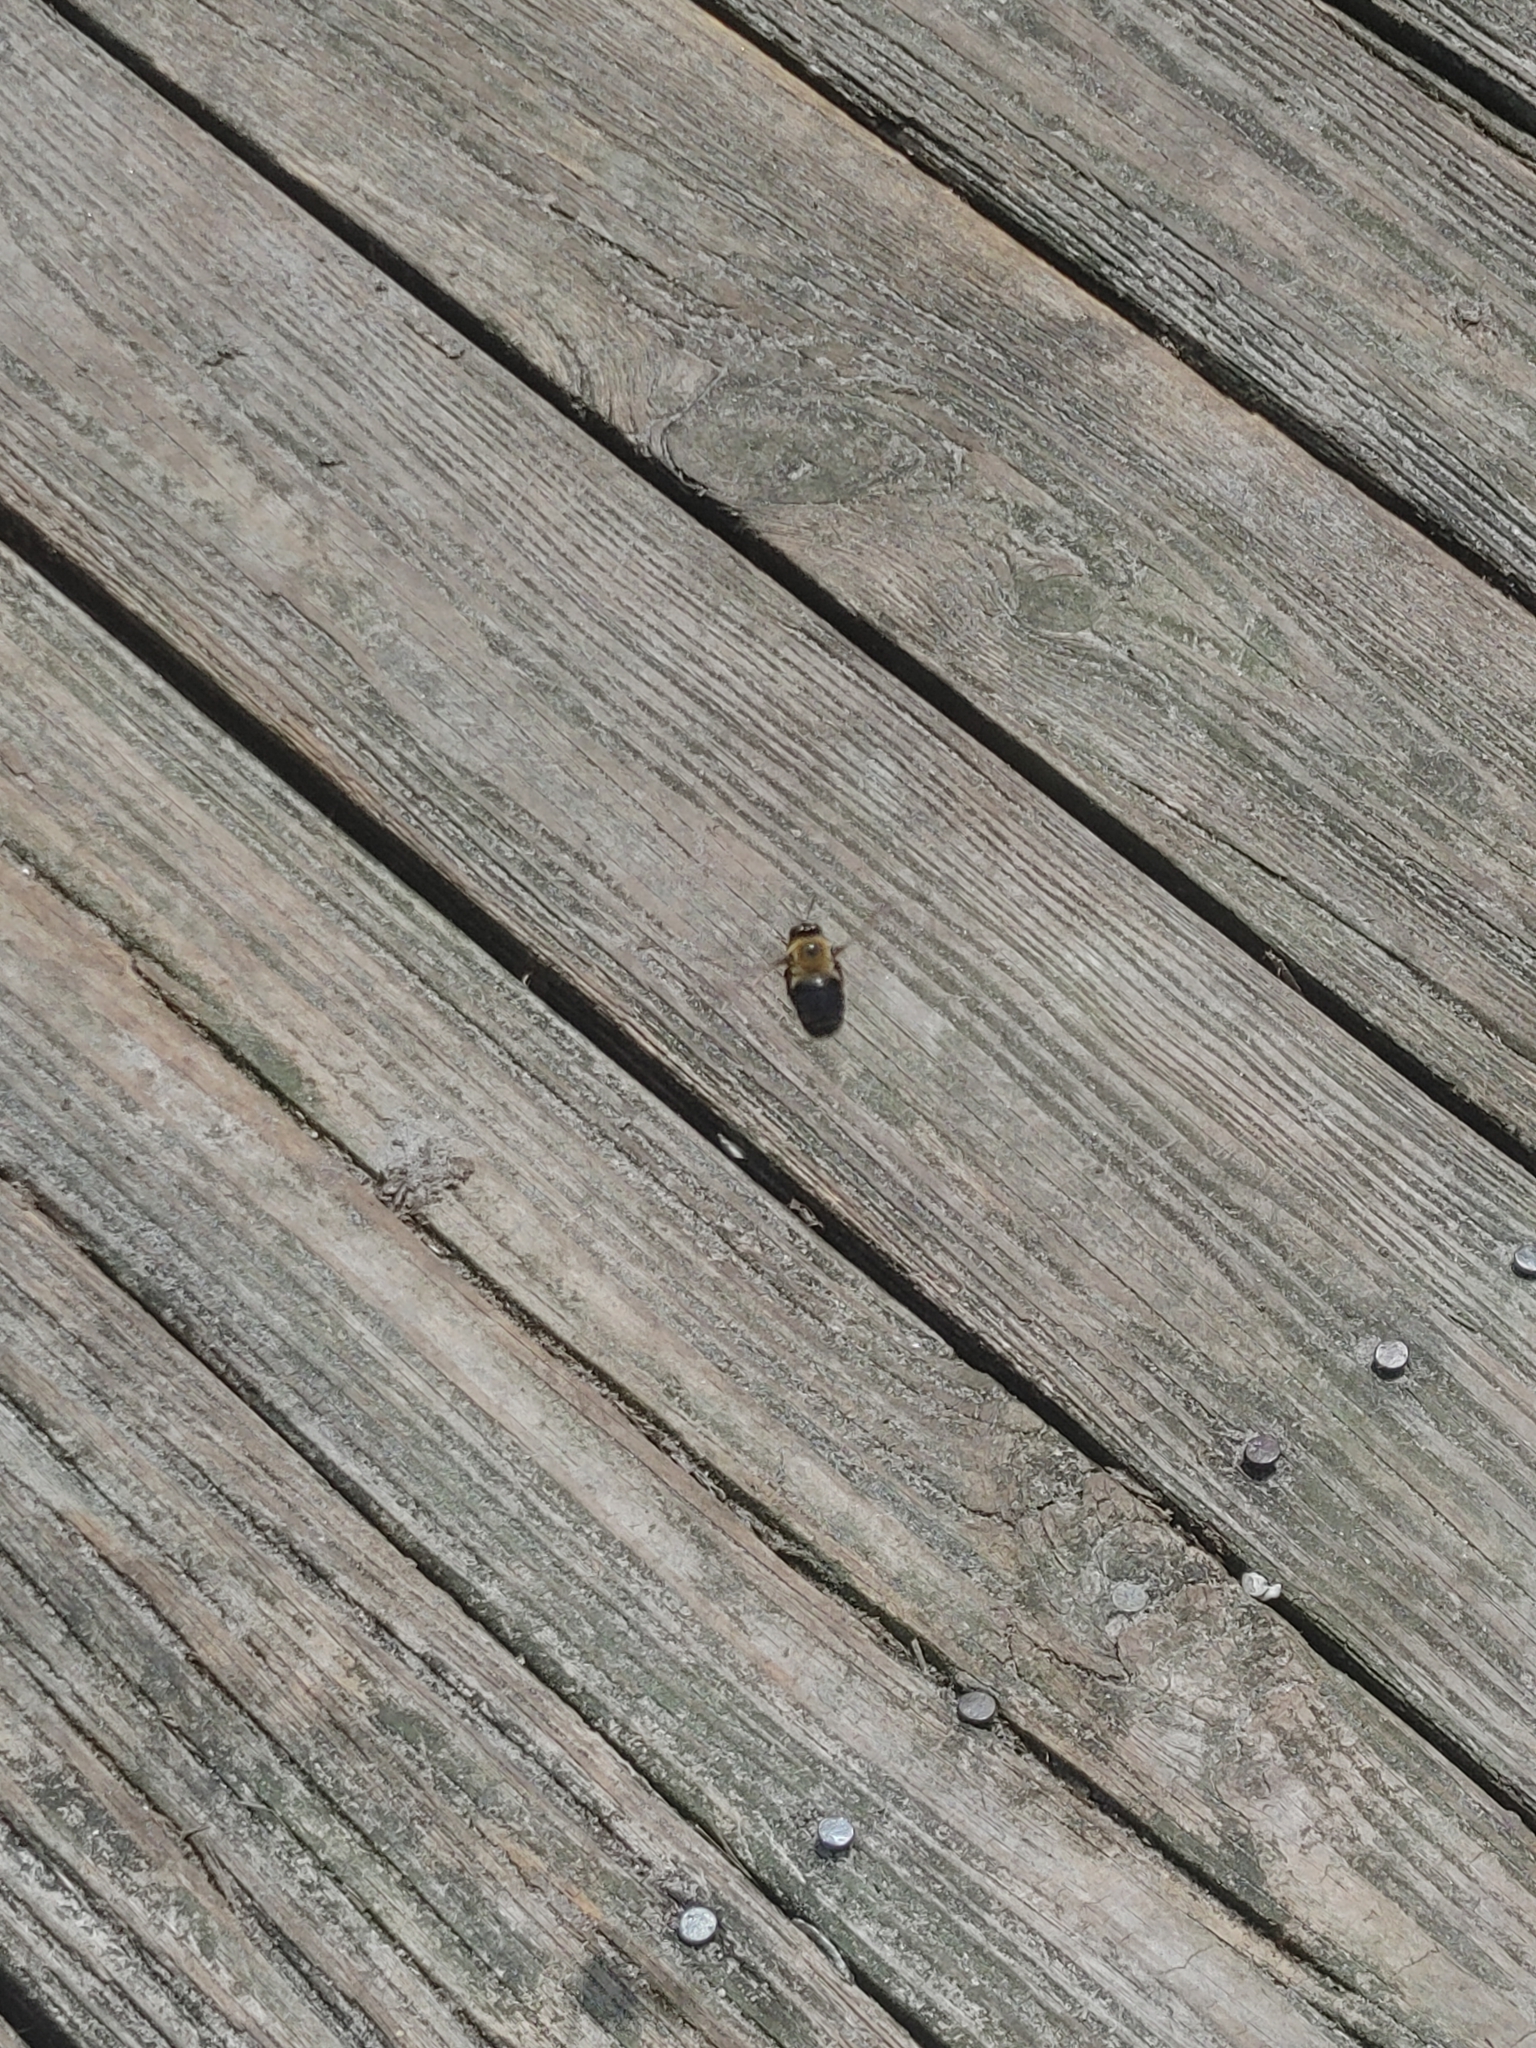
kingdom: Animalia
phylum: Arthropoda
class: Insecta
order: Hymenoptera
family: Apidae
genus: Xylocopa
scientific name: Xylocopa virginica
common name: Carpenter bee
